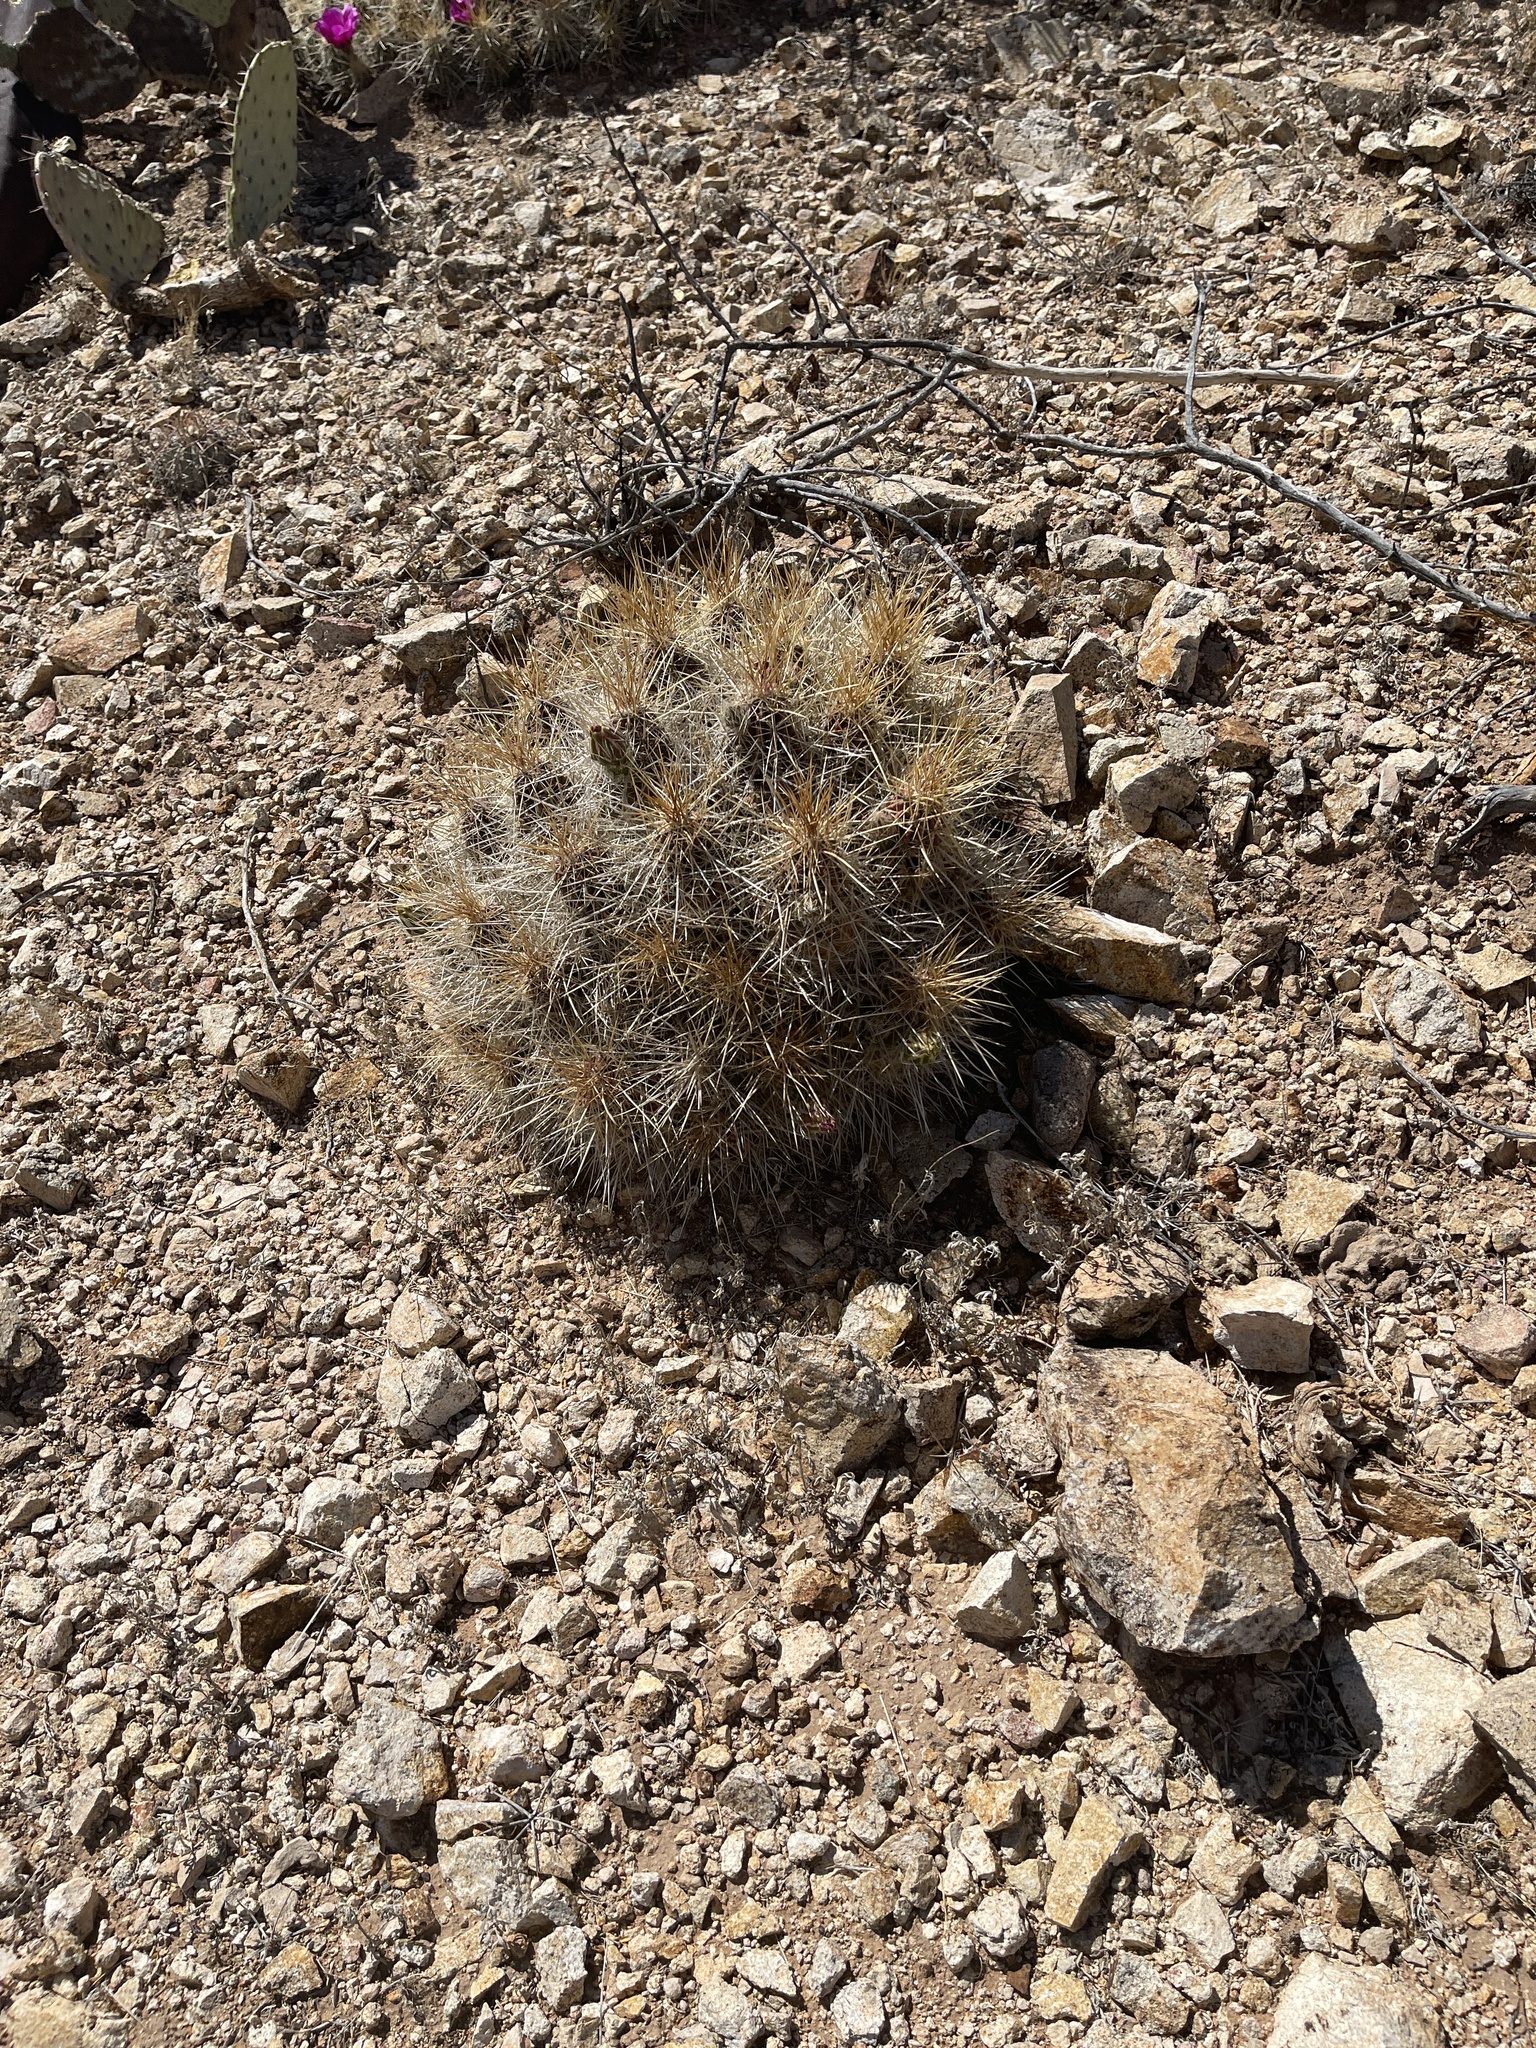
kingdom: Plantae
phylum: Tracheophyta
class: Magnoliopsida
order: Caryophyllales
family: Cactaceae
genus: Echinocereus
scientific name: Echinocereus stramineus
